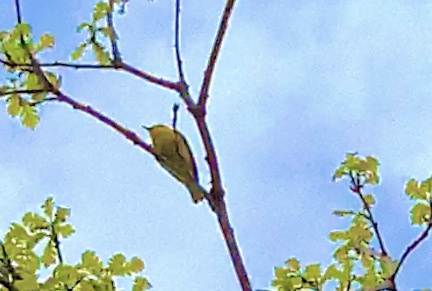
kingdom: Animalia
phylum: Chordata
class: Aves
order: Passeriformes
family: Parulidae
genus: Setophaga
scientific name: Setophaga petechia
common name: Yellow warbler
